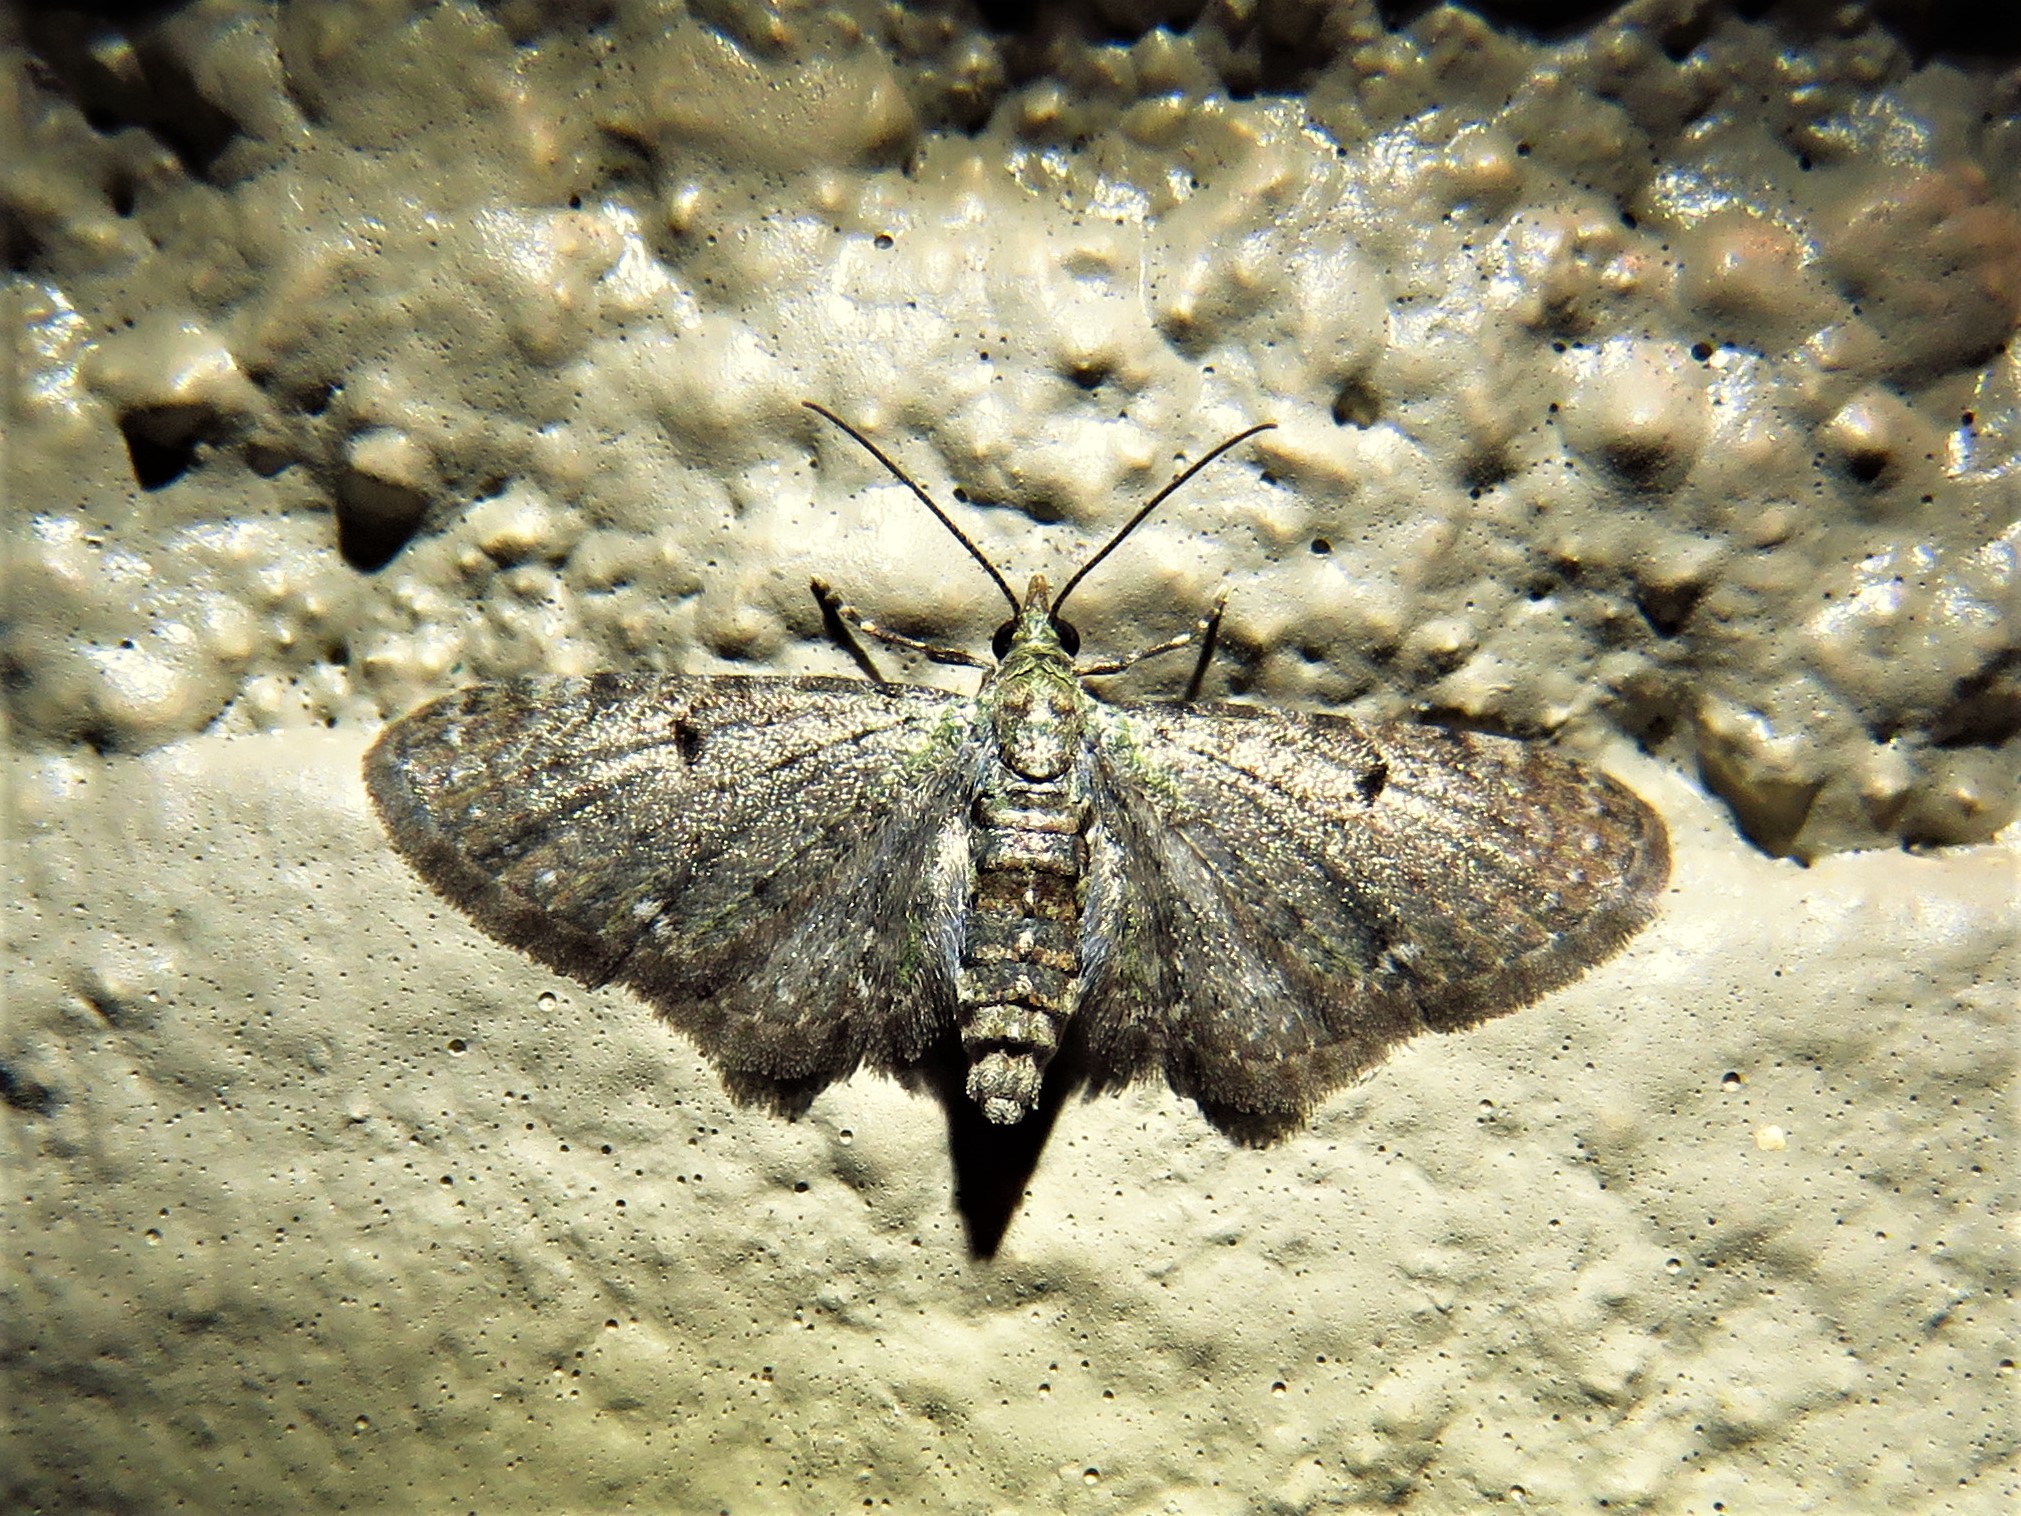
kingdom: Animalia
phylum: Arthropoda
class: Insecta
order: Lepidoptera
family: Geometridae
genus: Eupithecia
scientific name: Eupithecia miserulata
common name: Common eupithecia
